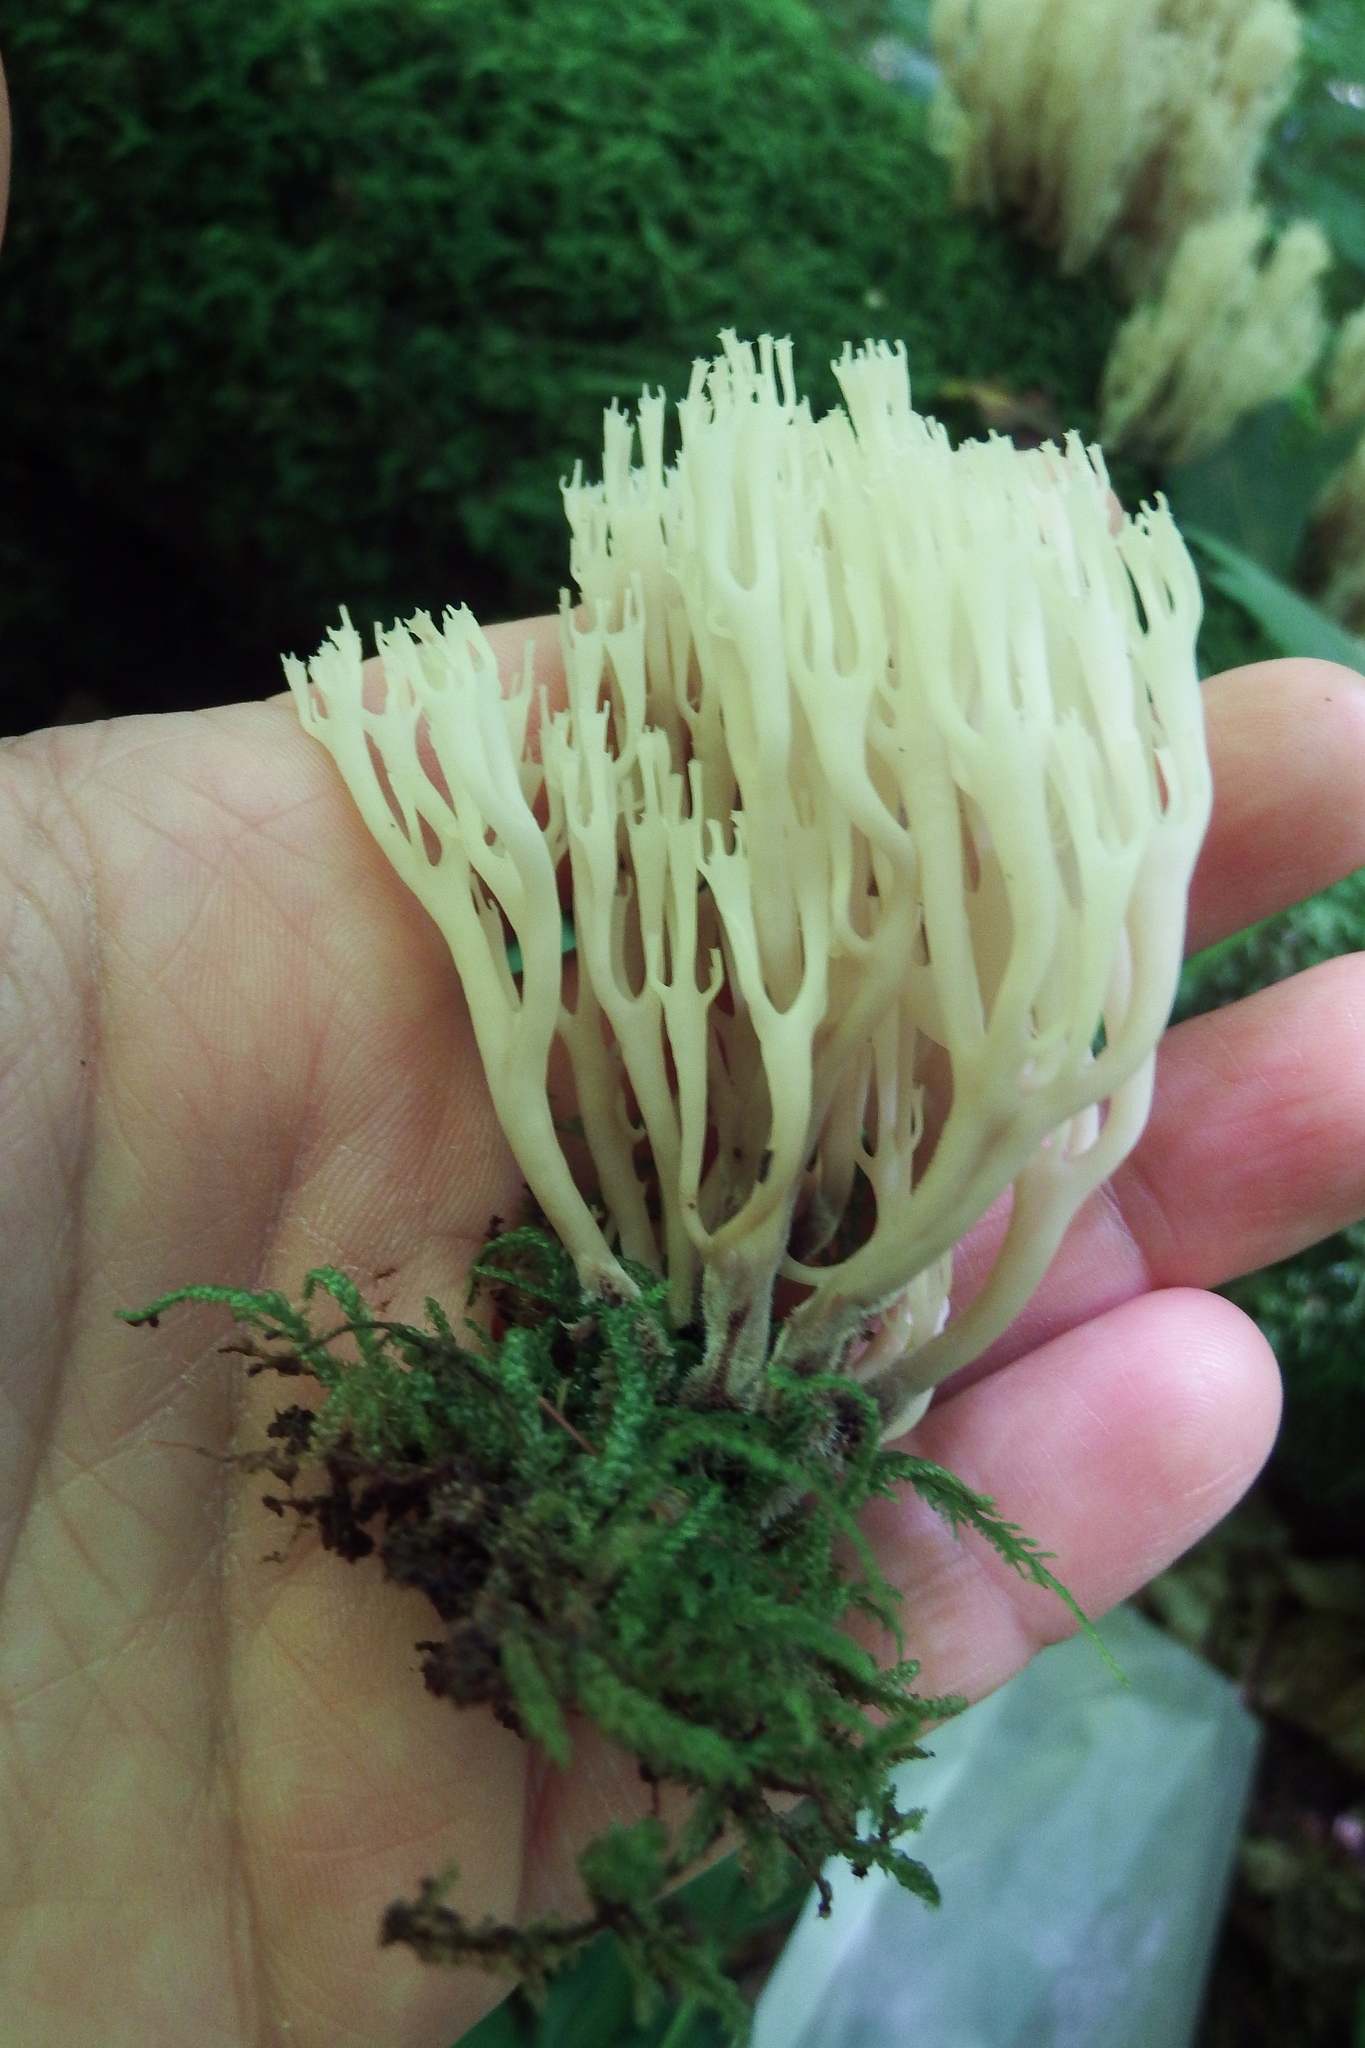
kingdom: Fungi
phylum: Basidiomycota
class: Agaricomycetes
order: Russulales
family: Auriscalpiaceae
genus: Artomyces
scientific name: Artomyces pyxidatus
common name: Crown-tipped coral fungus
